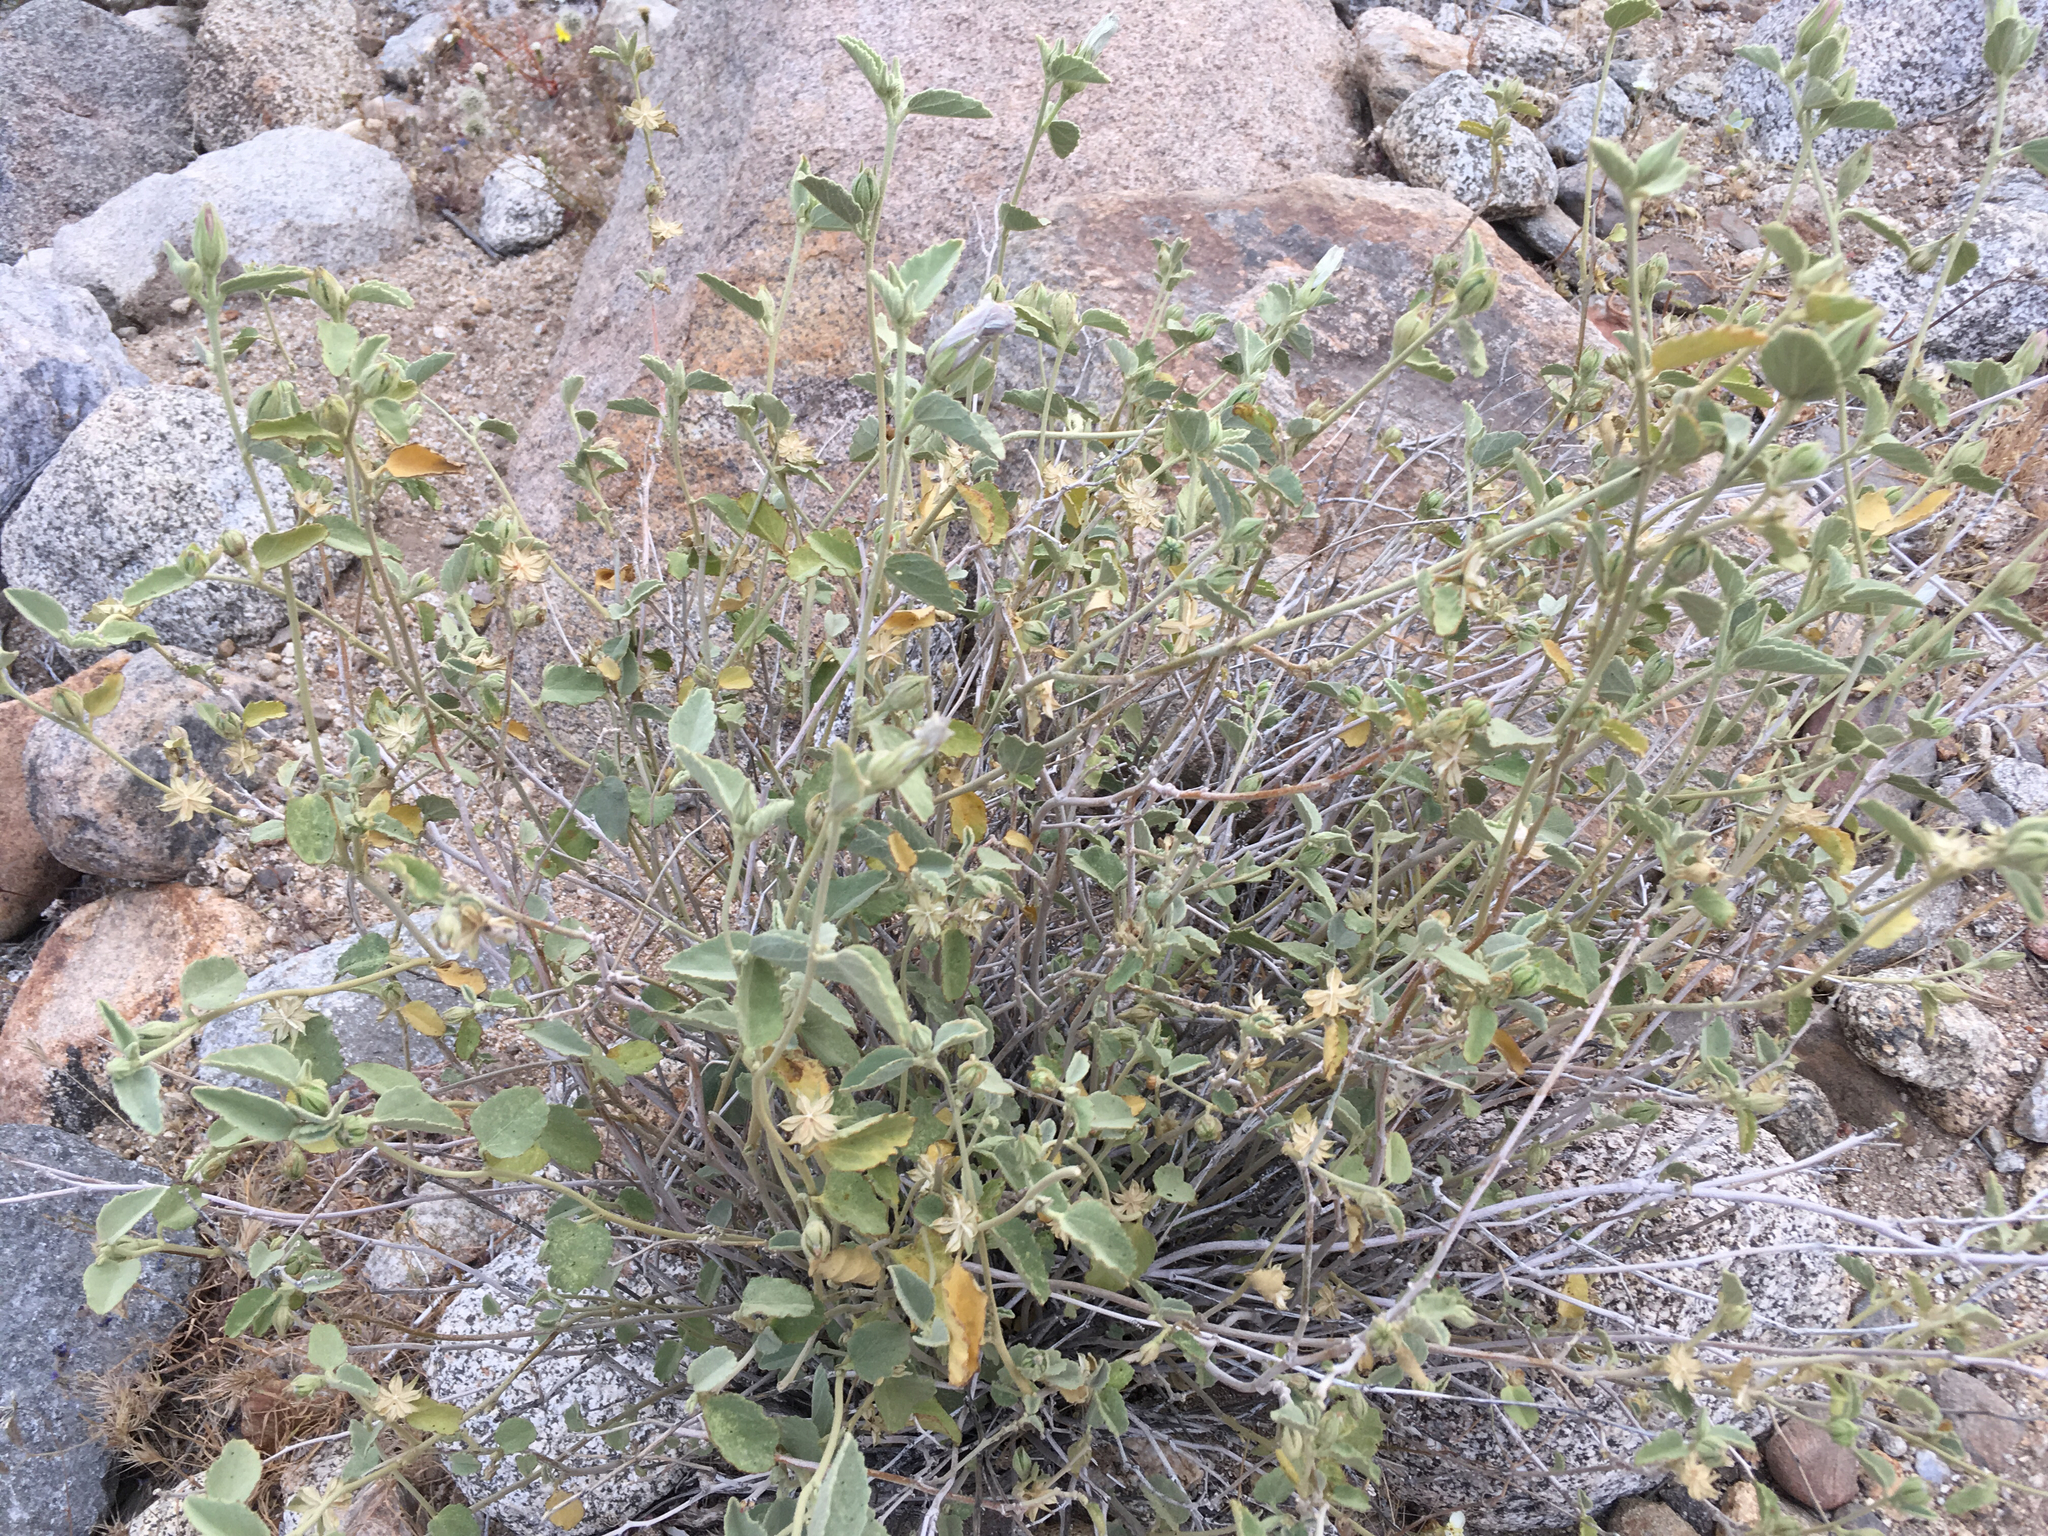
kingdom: Plantae
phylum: Tracheophyta
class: Magnoliopsida
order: Malvales
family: Malvaceae
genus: Hibiscus
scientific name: Hibiscus denudatus
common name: Paleface
